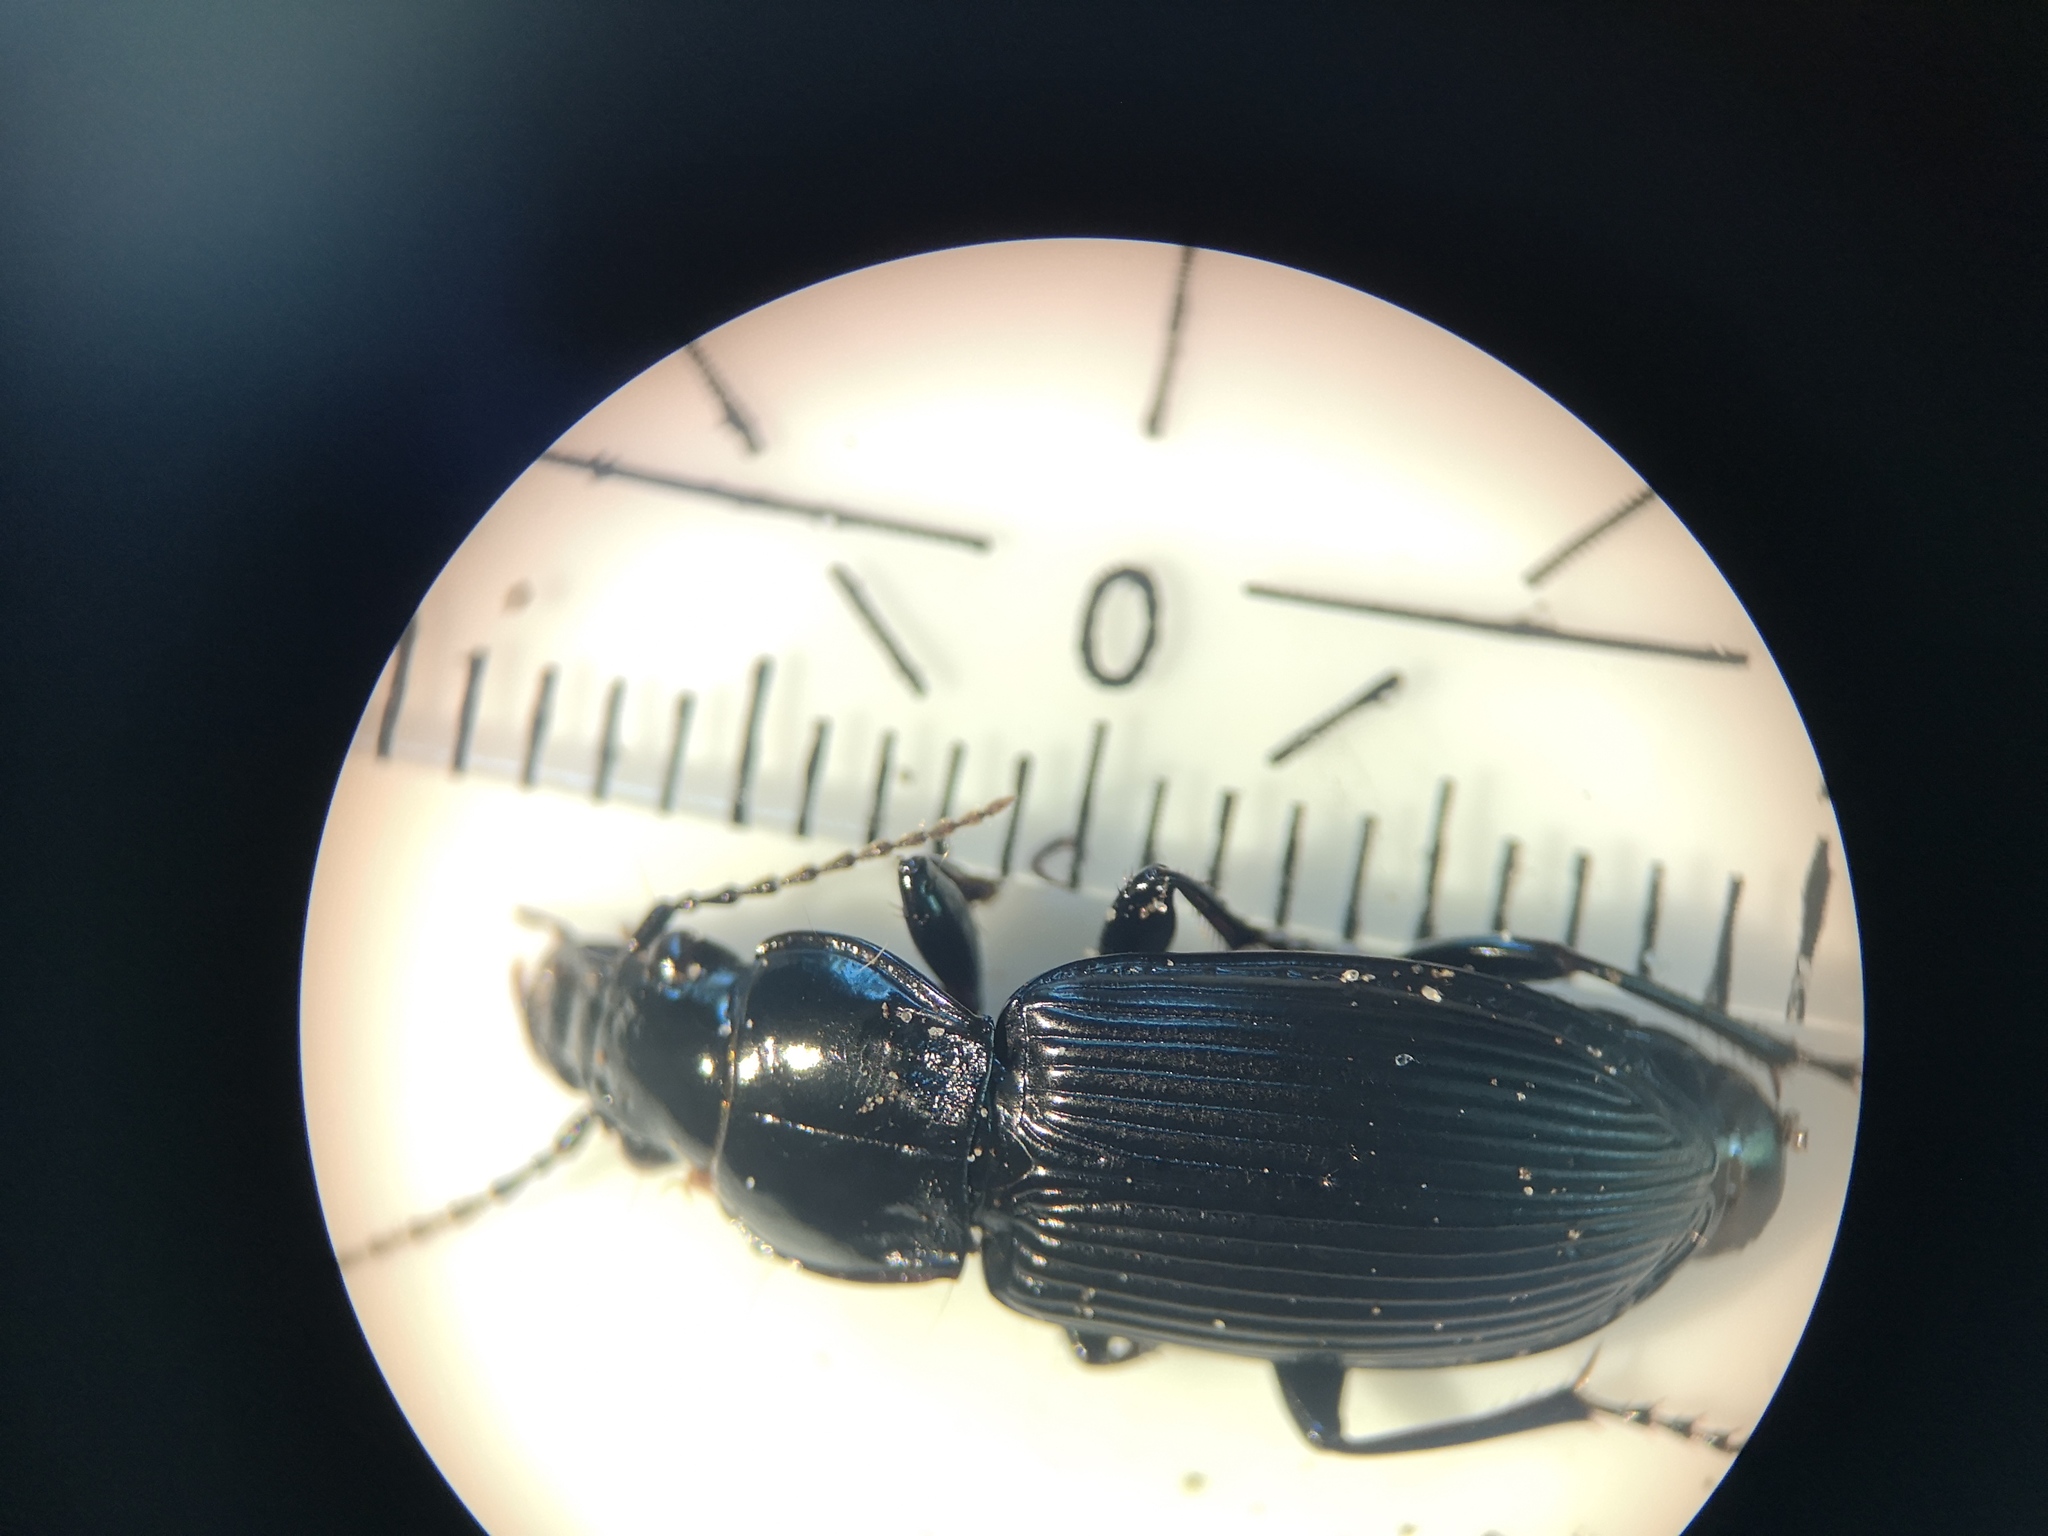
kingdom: Animalia
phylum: Arthropoda
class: Insecta
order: Coleoptera
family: Carabidae
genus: Pterostichus
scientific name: Pterostichus melanarius
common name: European dark harp ground beetle
